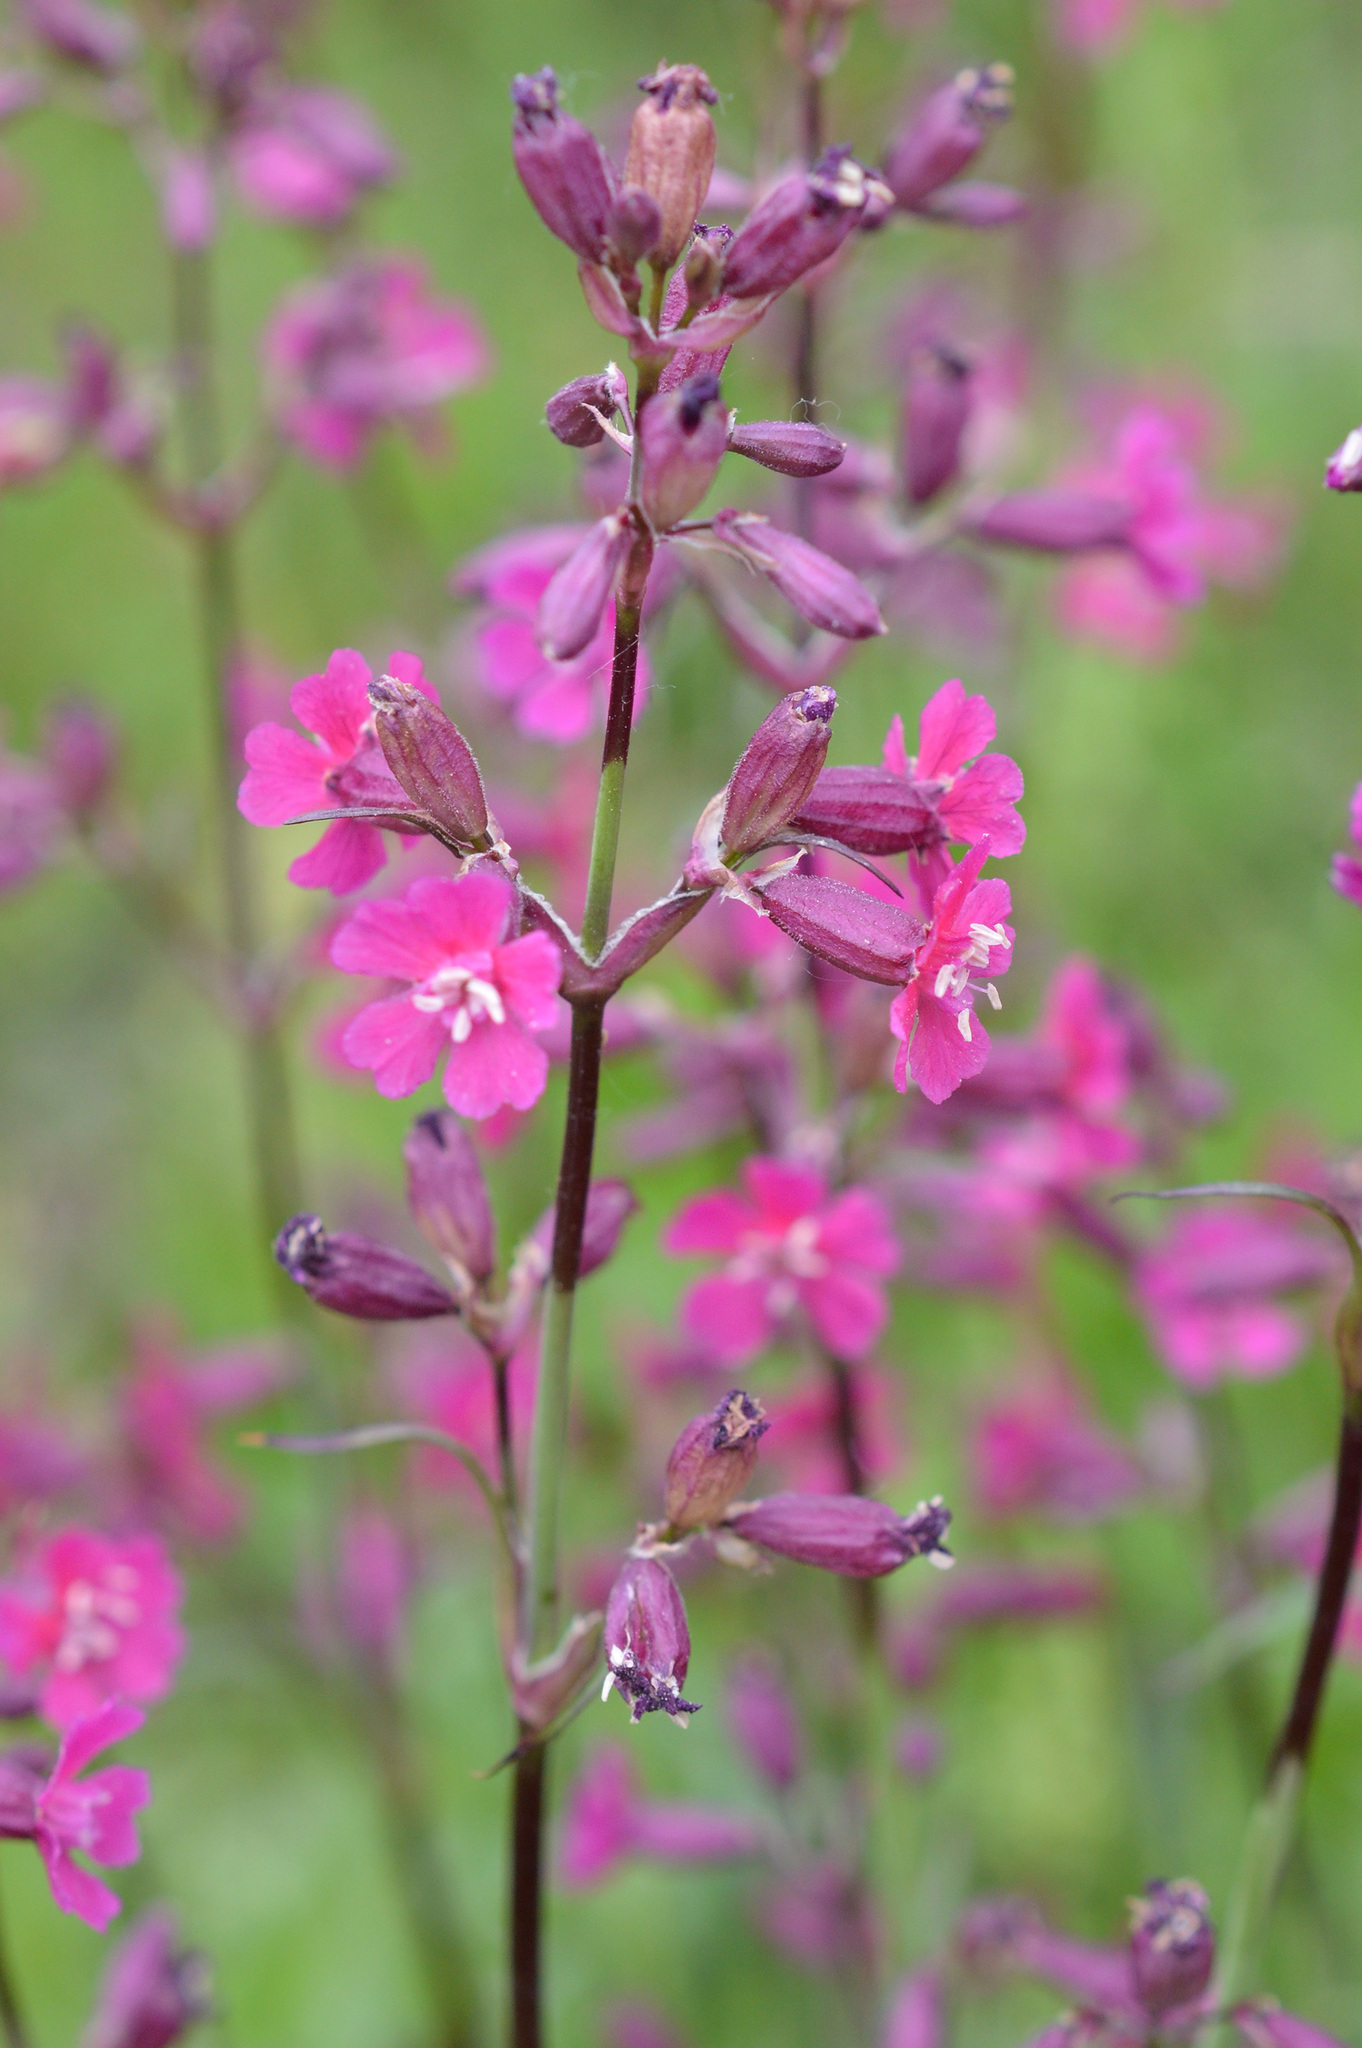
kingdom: Plantae
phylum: Tracheophyta
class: Magnoliopsida
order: Caryophyllales
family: Caryophyllaceae
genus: Viscaria
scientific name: Viscaria vulgaris
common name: Clammy campion
